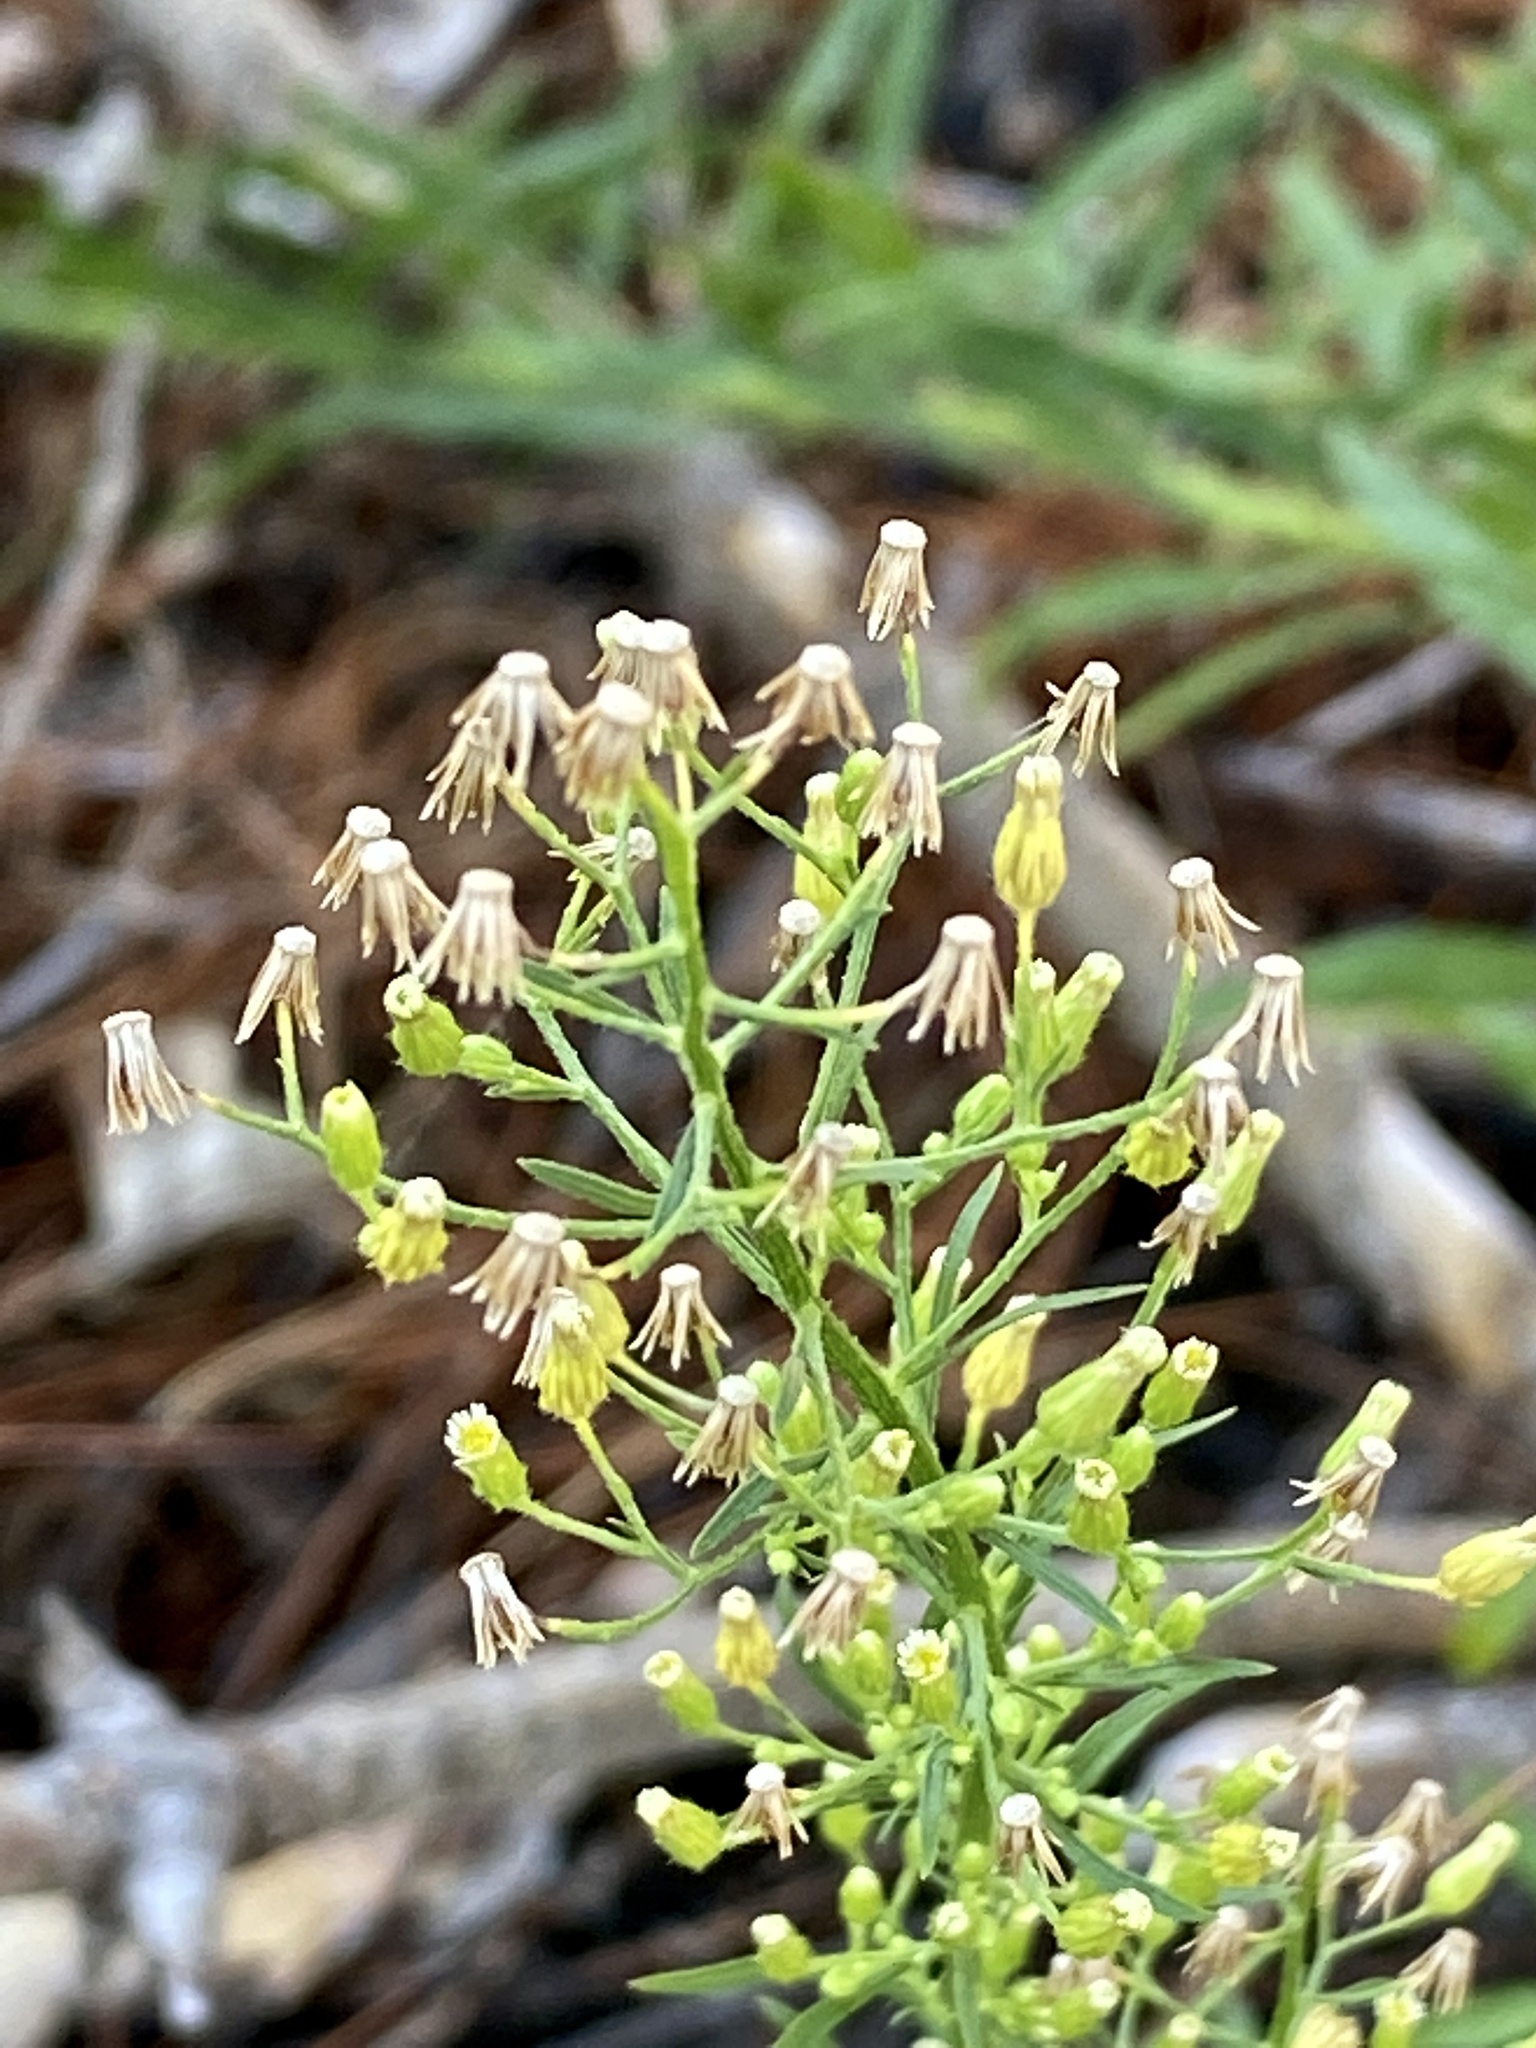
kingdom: Plantae
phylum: Tracheophyta
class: Magnoliopsida
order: Asterales
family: Asteraceae
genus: Erigeron
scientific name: Erigeron canadensis
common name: Canadian fleabane
